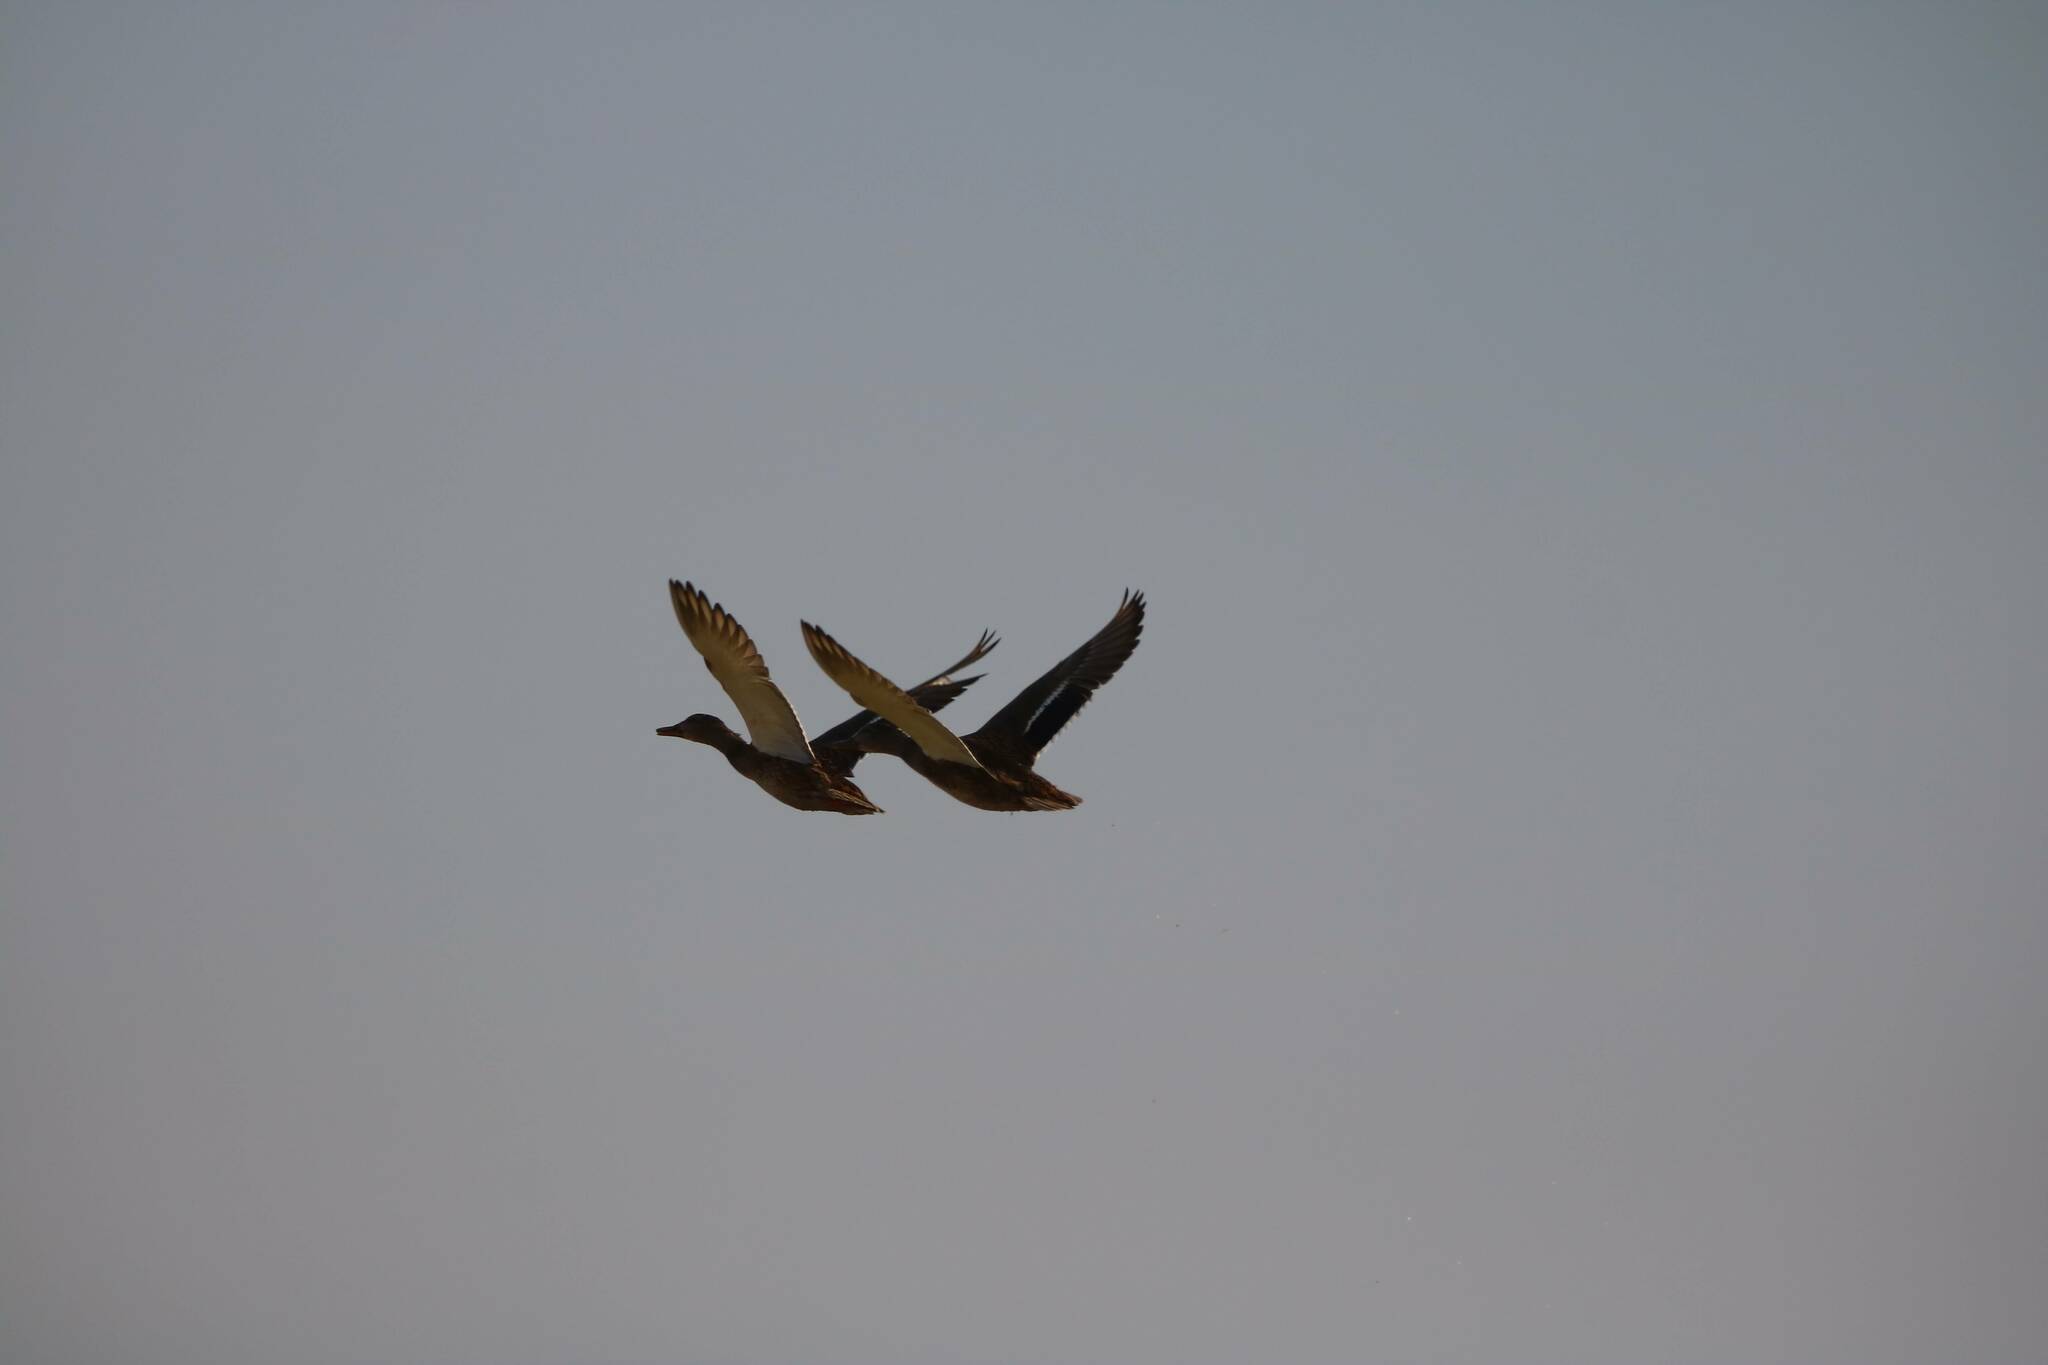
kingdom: Animalia
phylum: Chordata
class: Aves
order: Anseriformes
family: Anatidae
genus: Anas
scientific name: Anas platyrhynchos
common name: Mallard
